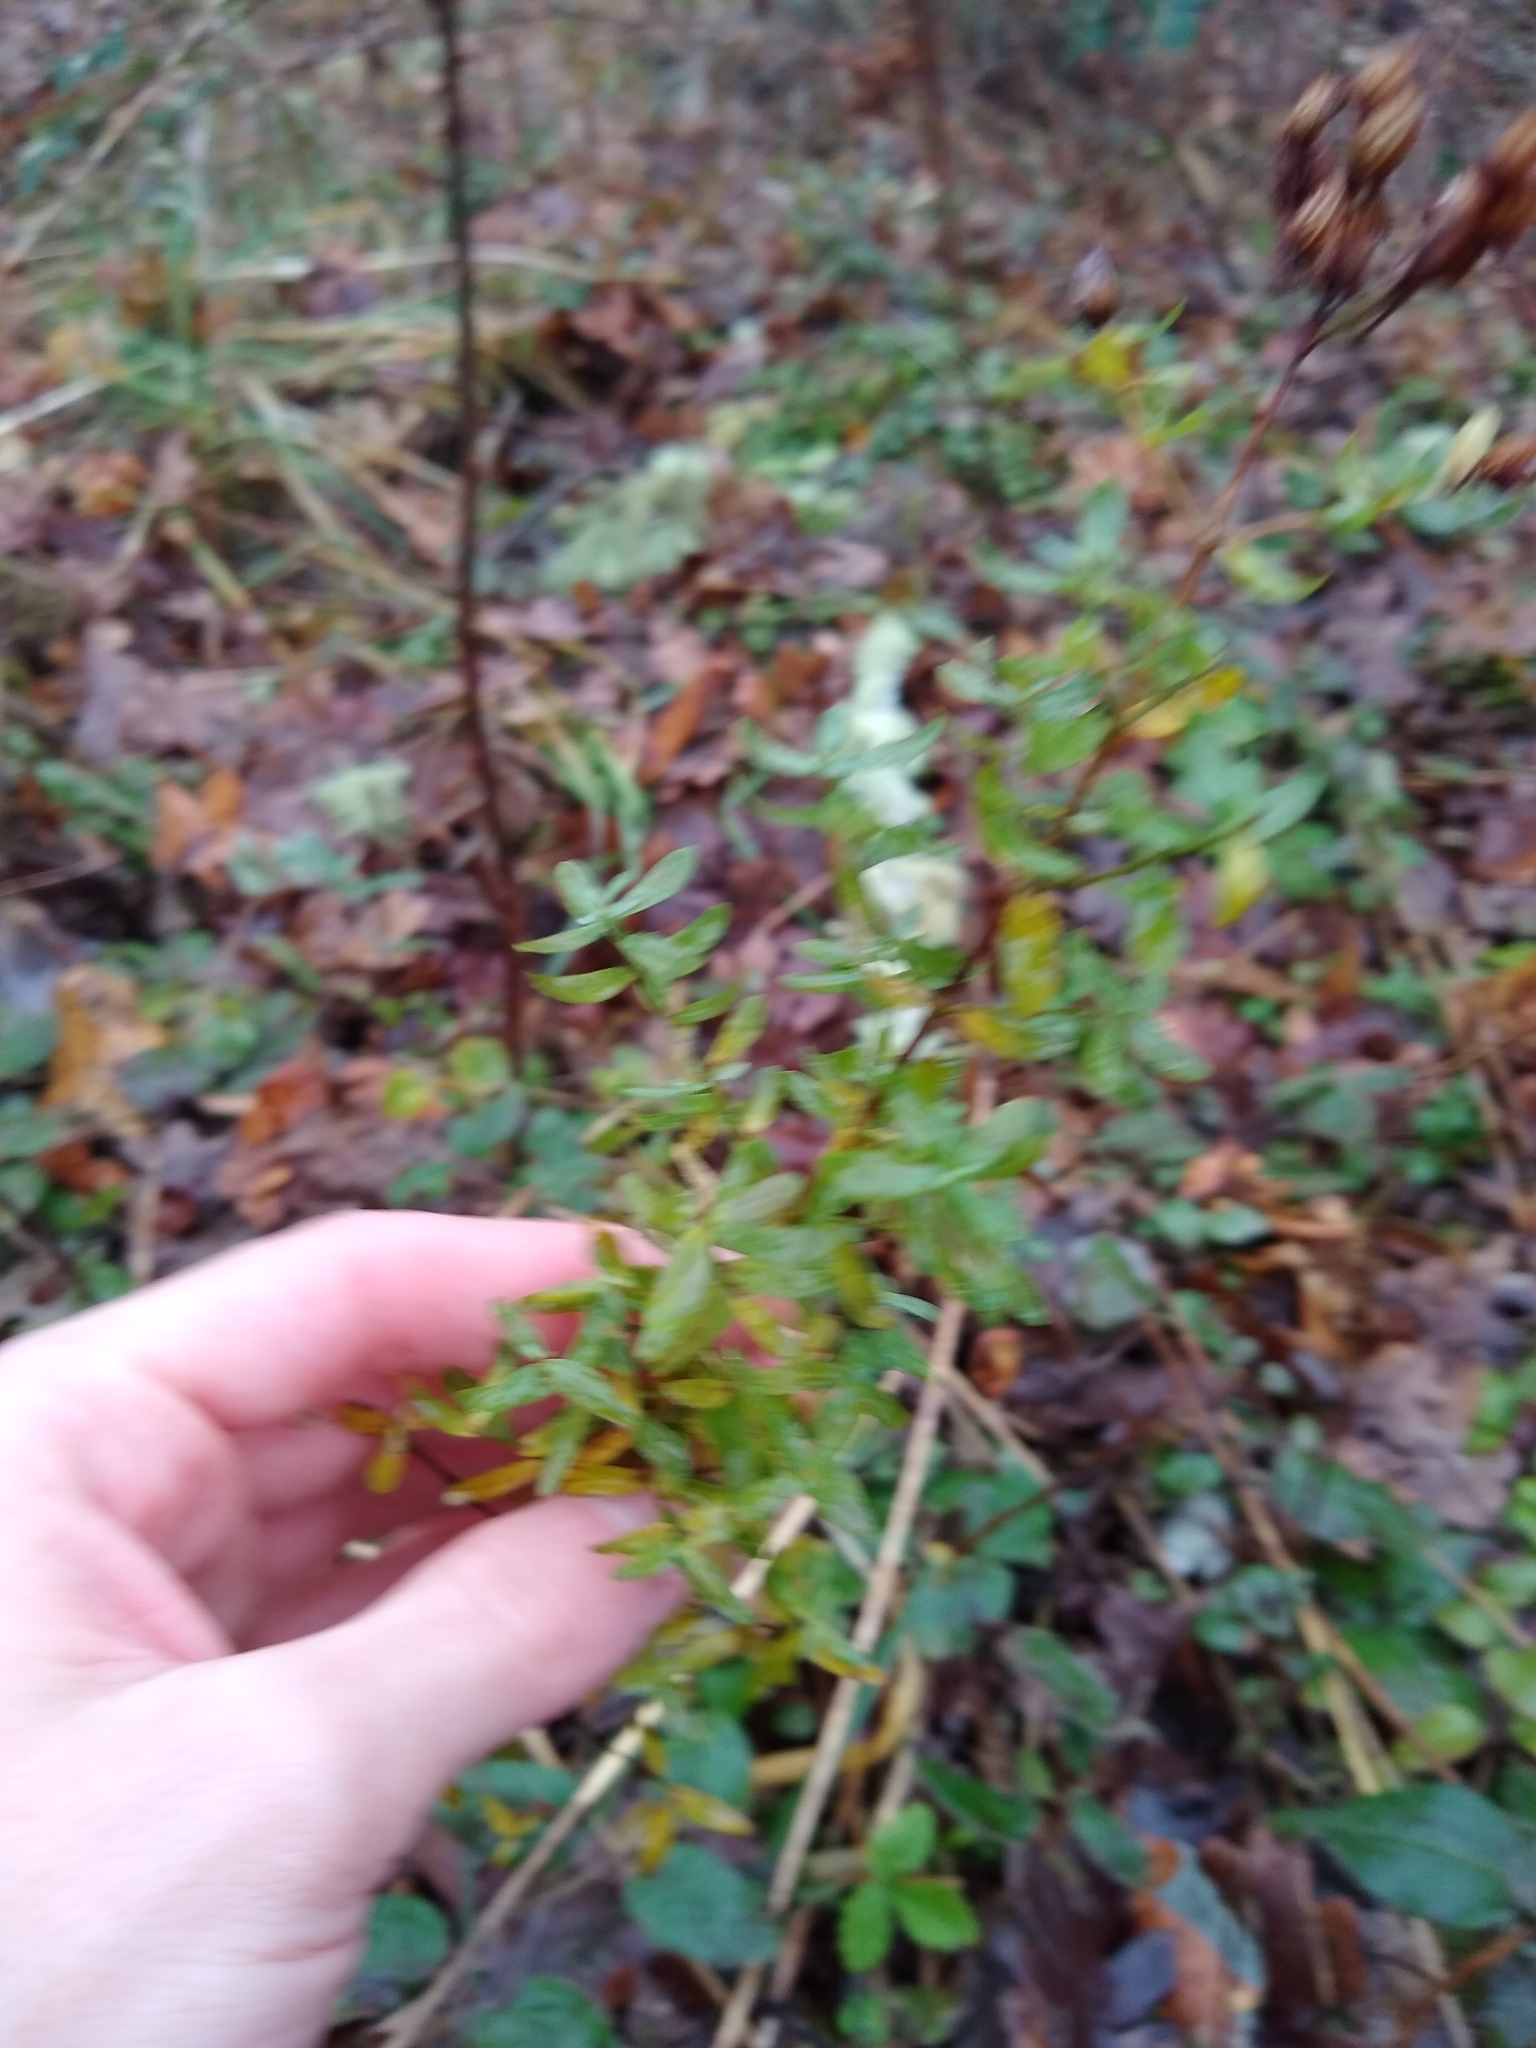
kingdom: Plantae
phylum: Tracheophyta
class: Magnoliopsida
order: Malpighiales
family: Hypericaceae
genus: Hypericum
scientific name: Hypericum perforatum
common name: Common st. johnswort
